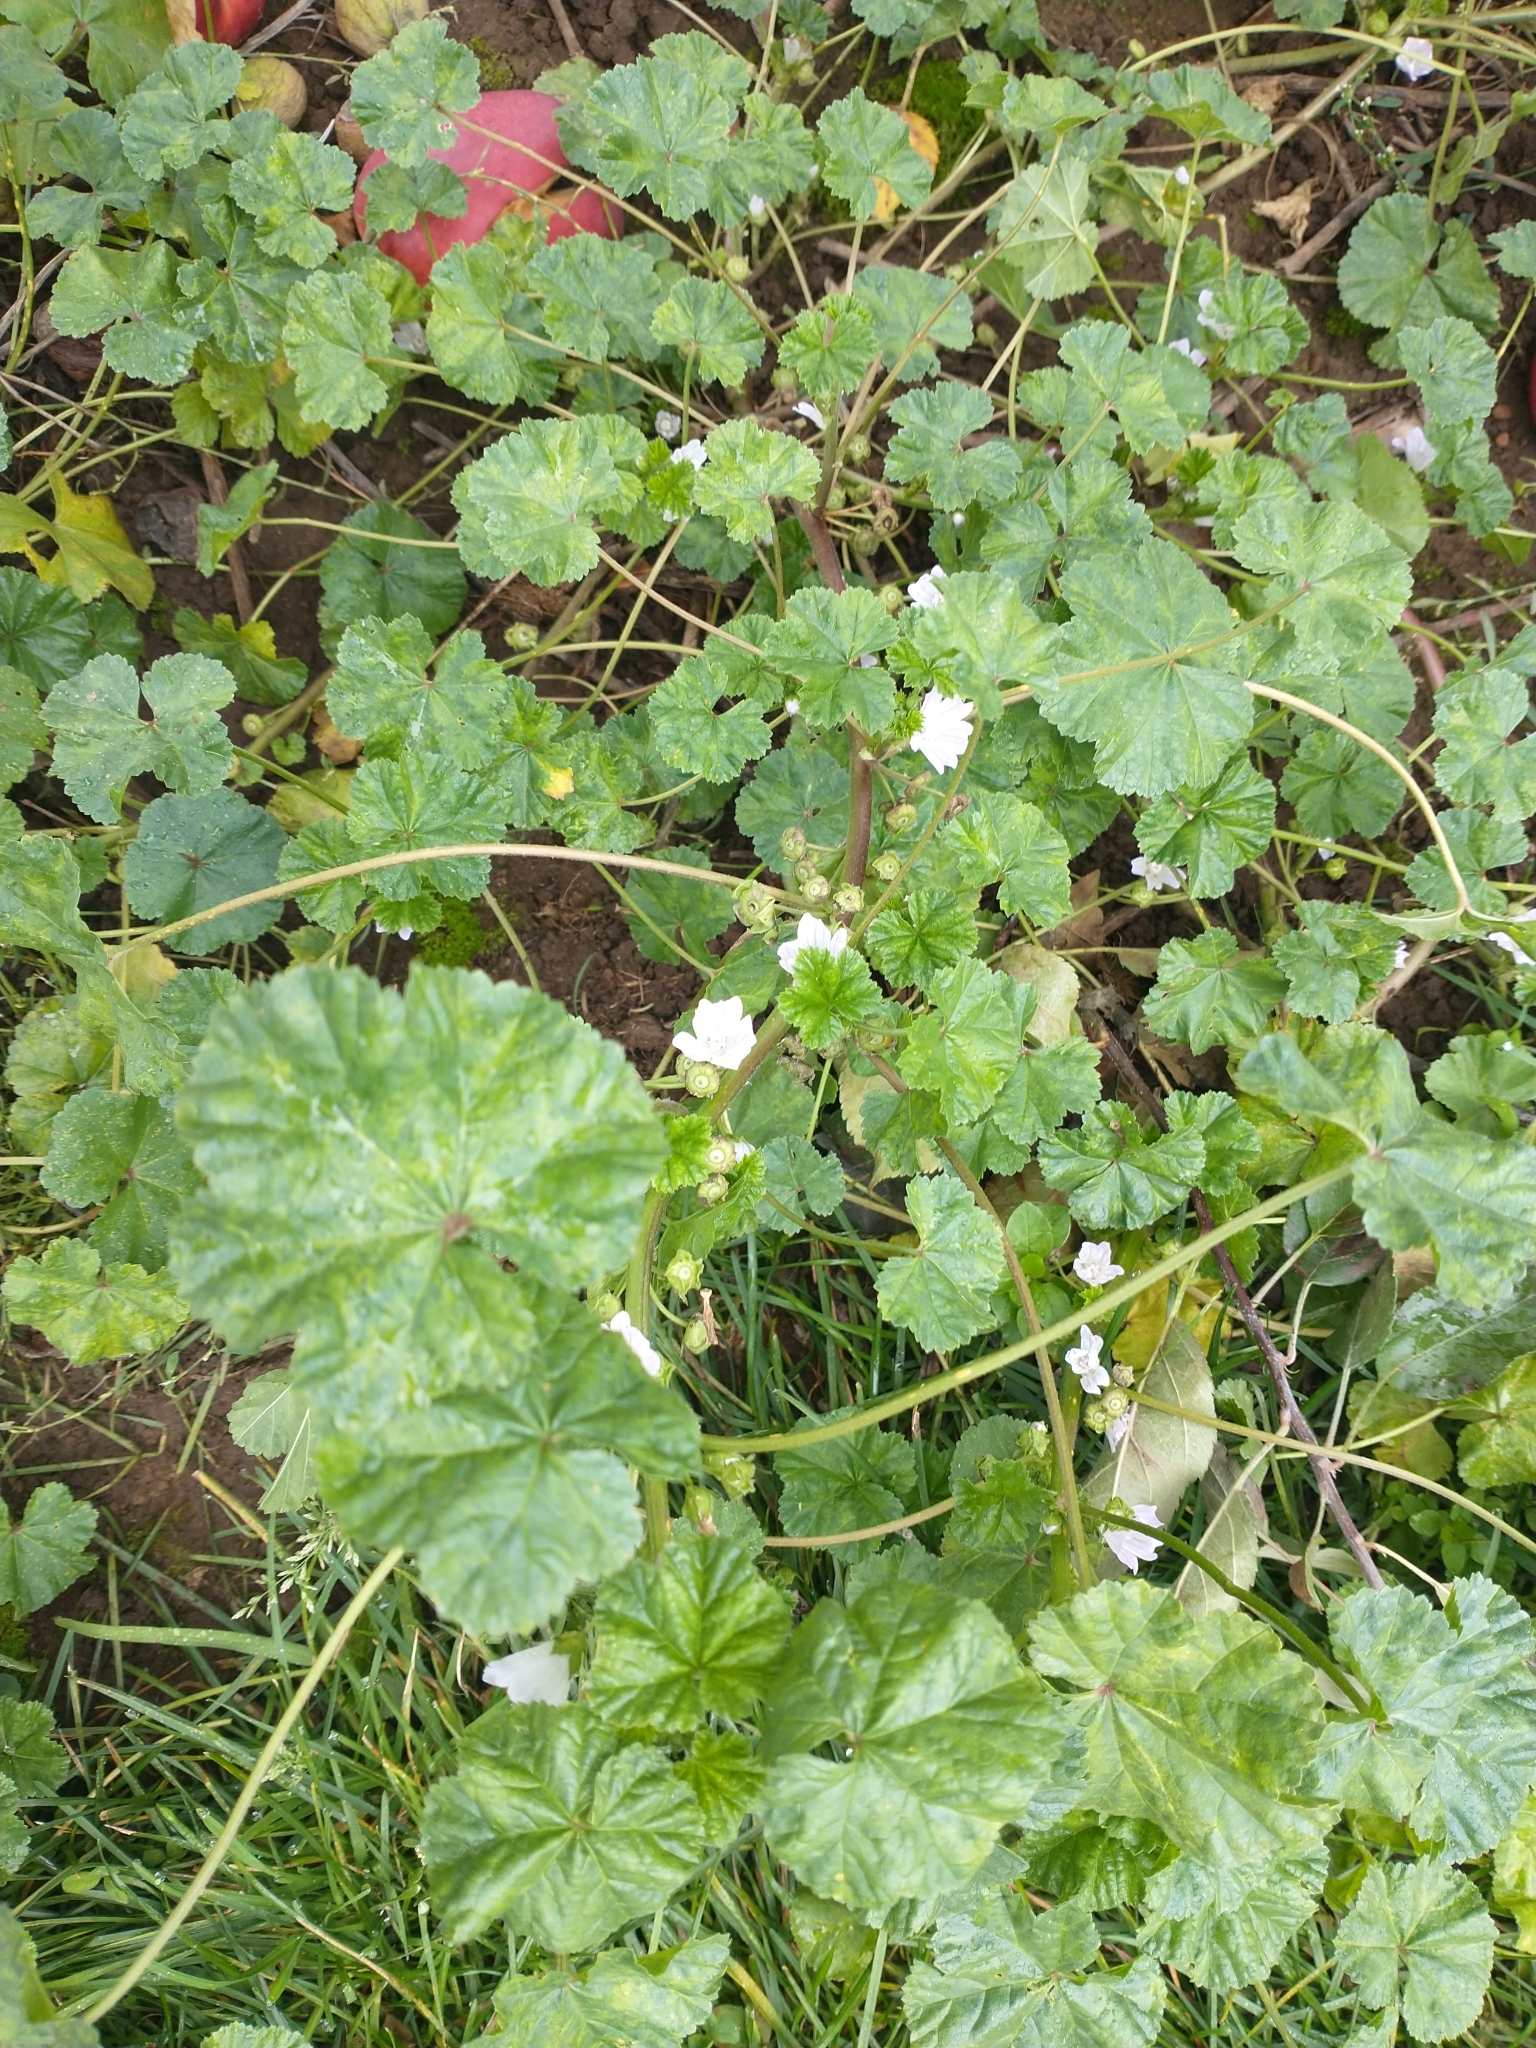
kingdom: Plantae
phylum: Tracheophyta
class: Magnoliopsida
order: Malvales
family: Malvaceae
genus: Malva
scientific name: Malva neglecta
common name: Common mallow
